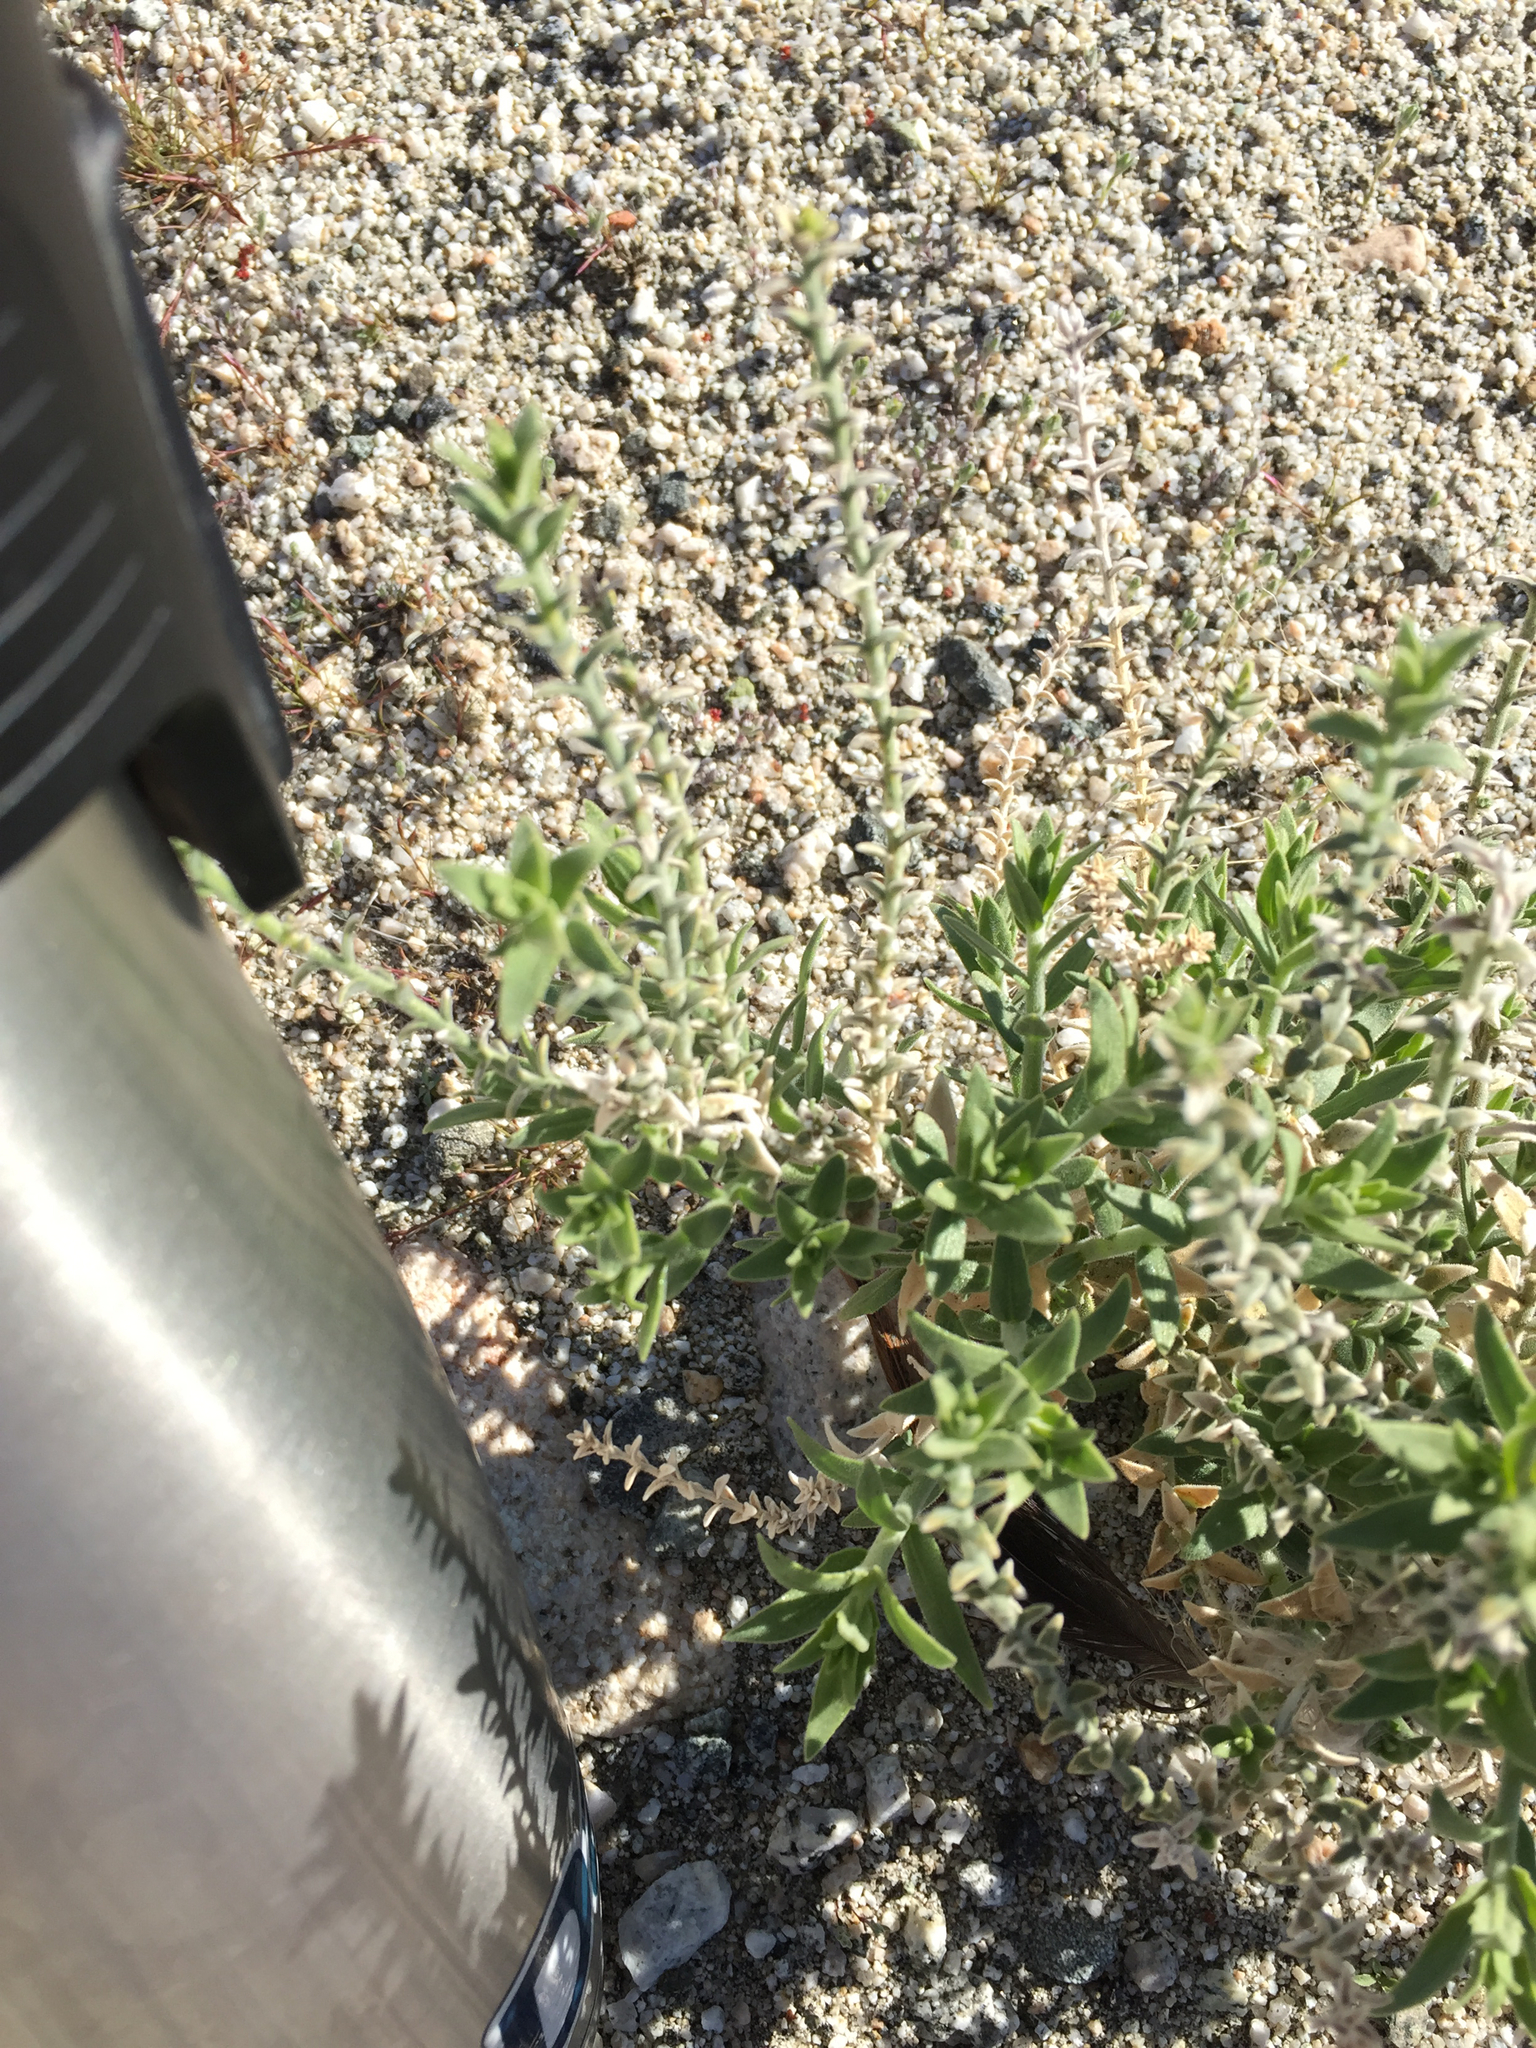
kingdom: Plantae
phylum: Tracheophyta
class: Magnoliopsida
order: Cornales
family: Loasaceae
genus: Petalonyx
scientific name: Petalonyx thurberi
